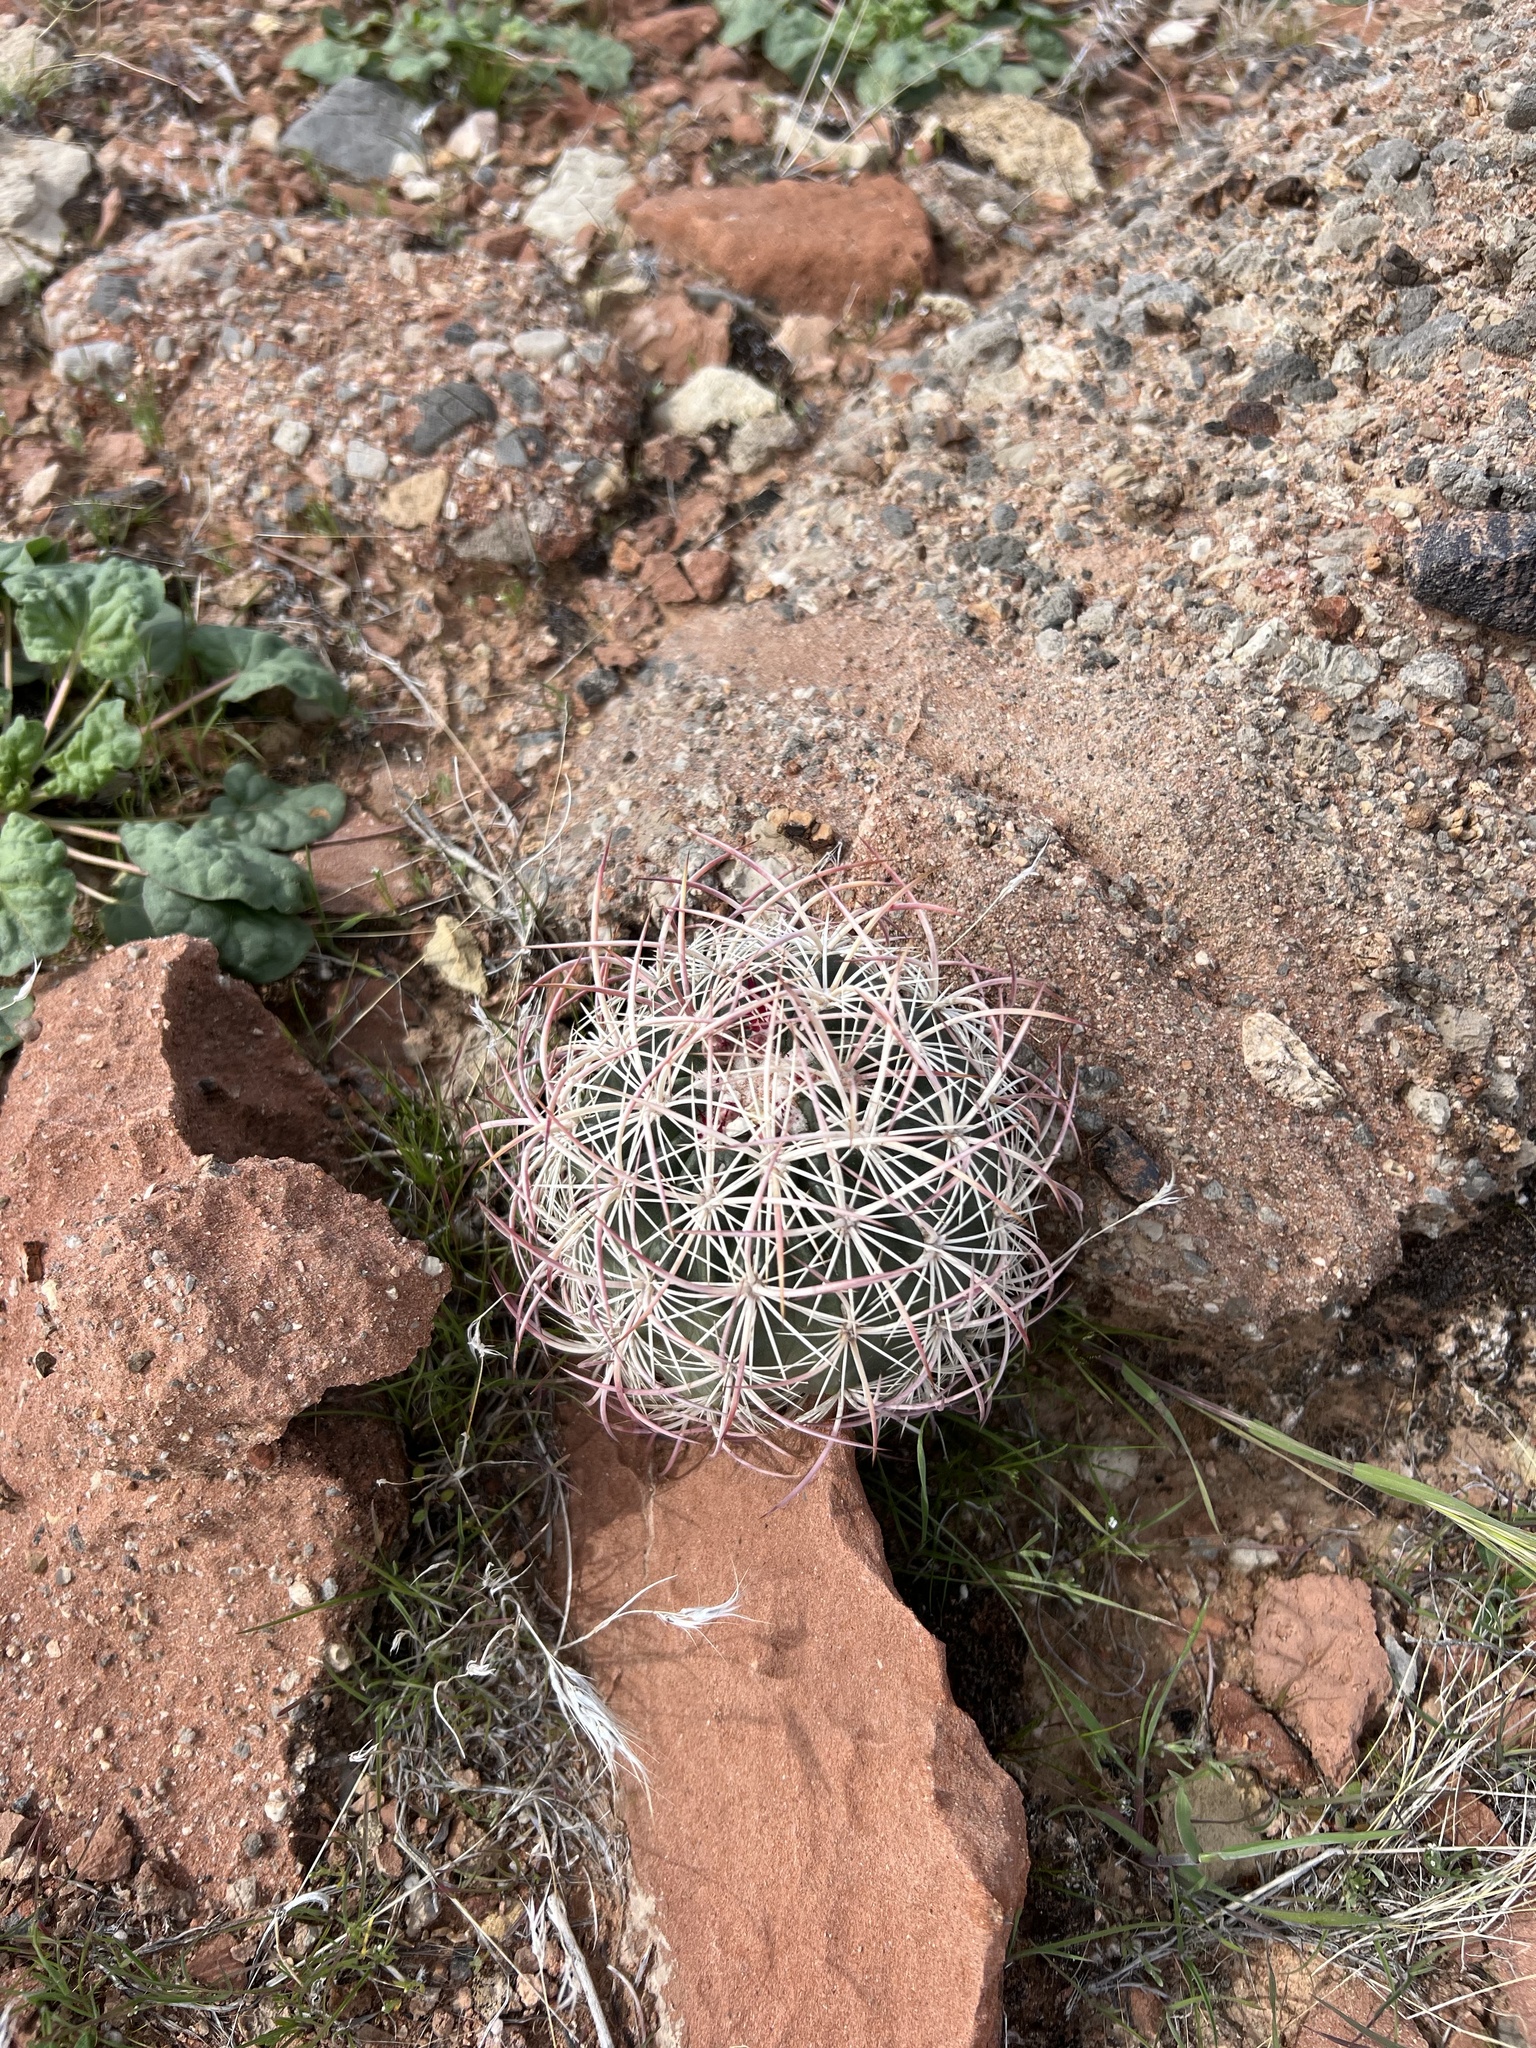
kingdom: Plantae
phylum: Tracheophyta
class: Magnoliopsida
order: Caryophyllales
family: Cactaceae
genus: Sclerocactus
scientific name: Sclerocactus johnsonii
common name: Eight-spine fishhook cactus
